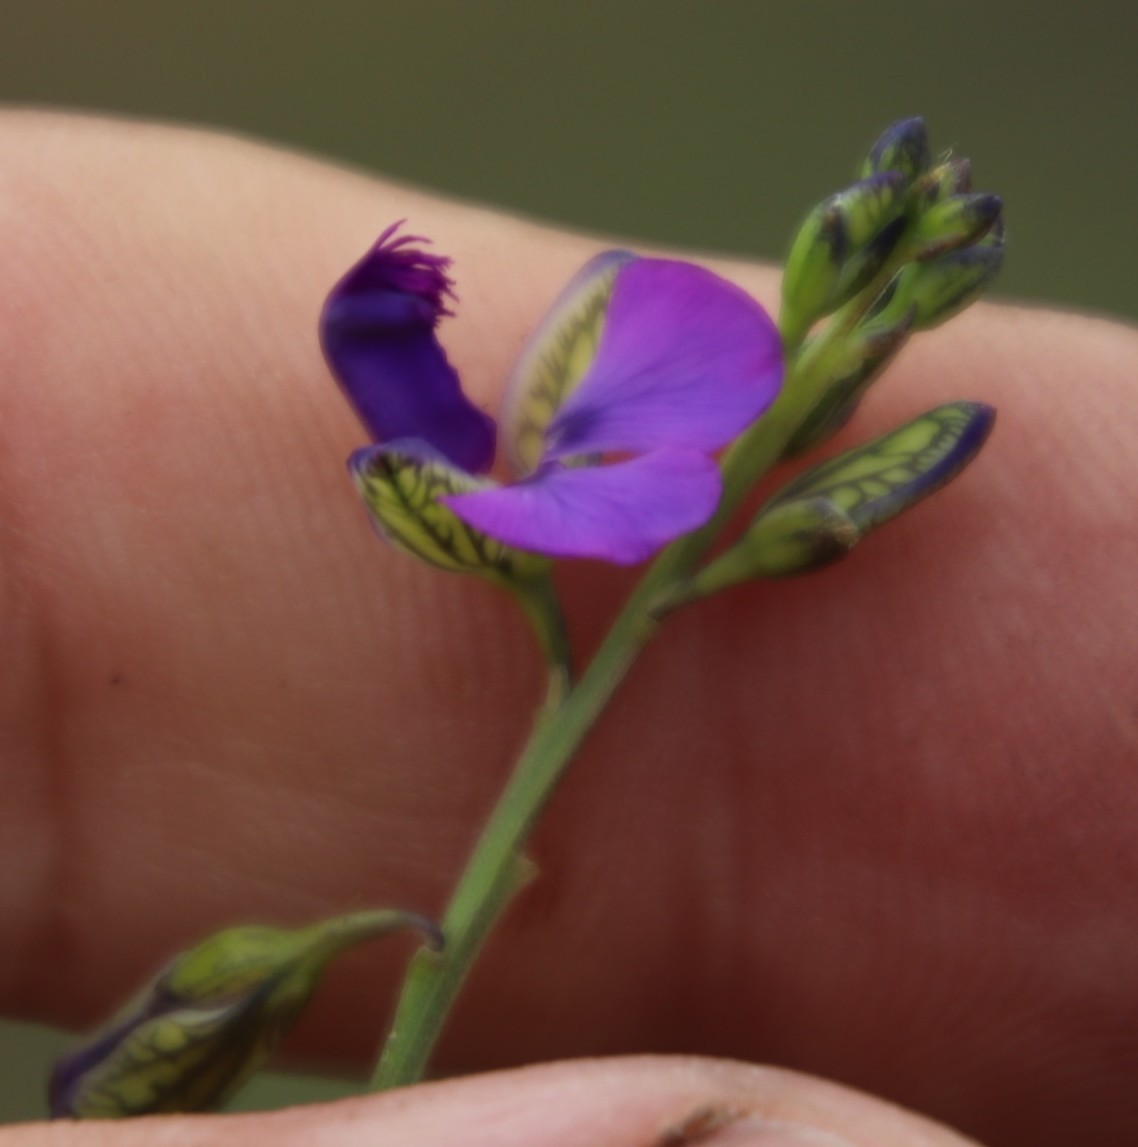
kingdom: Plantae
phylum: Tracheophyta
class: Magnoliopsida
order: Fabales
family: Polygalaceae
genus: Polygala
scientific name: Polygala uncinata
